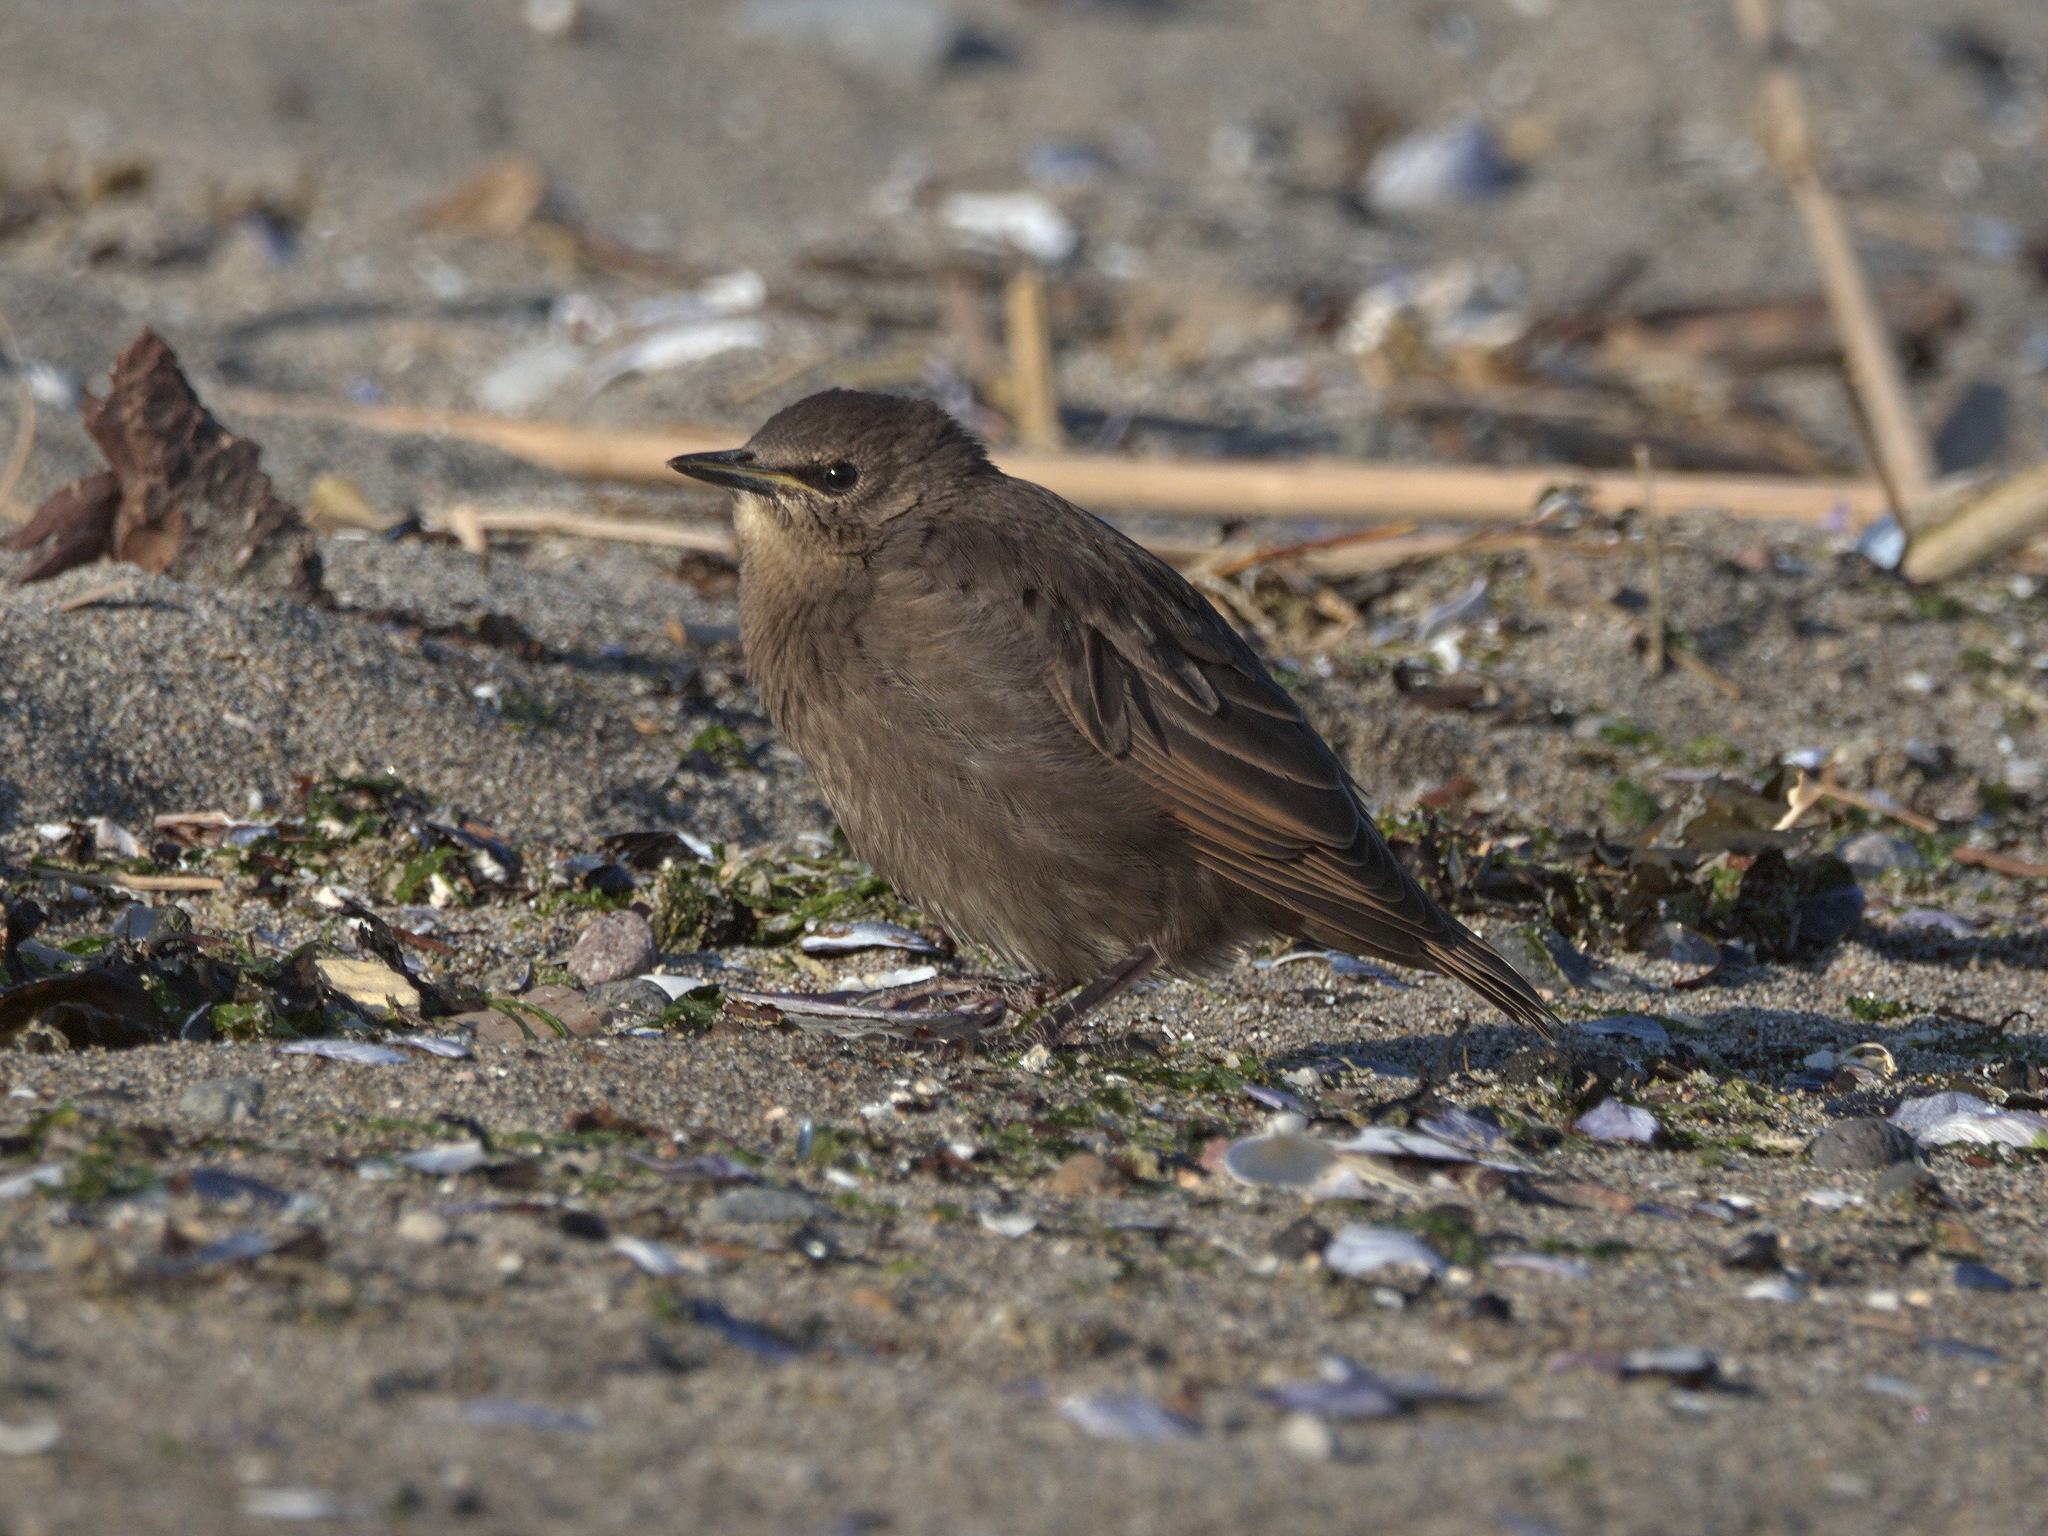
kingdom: Animalia
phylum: Chordata
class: Aves
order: Passeriformes
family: Sturnidae
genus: Sturnus
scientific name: Sturnus vulgaris
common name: Common starling
